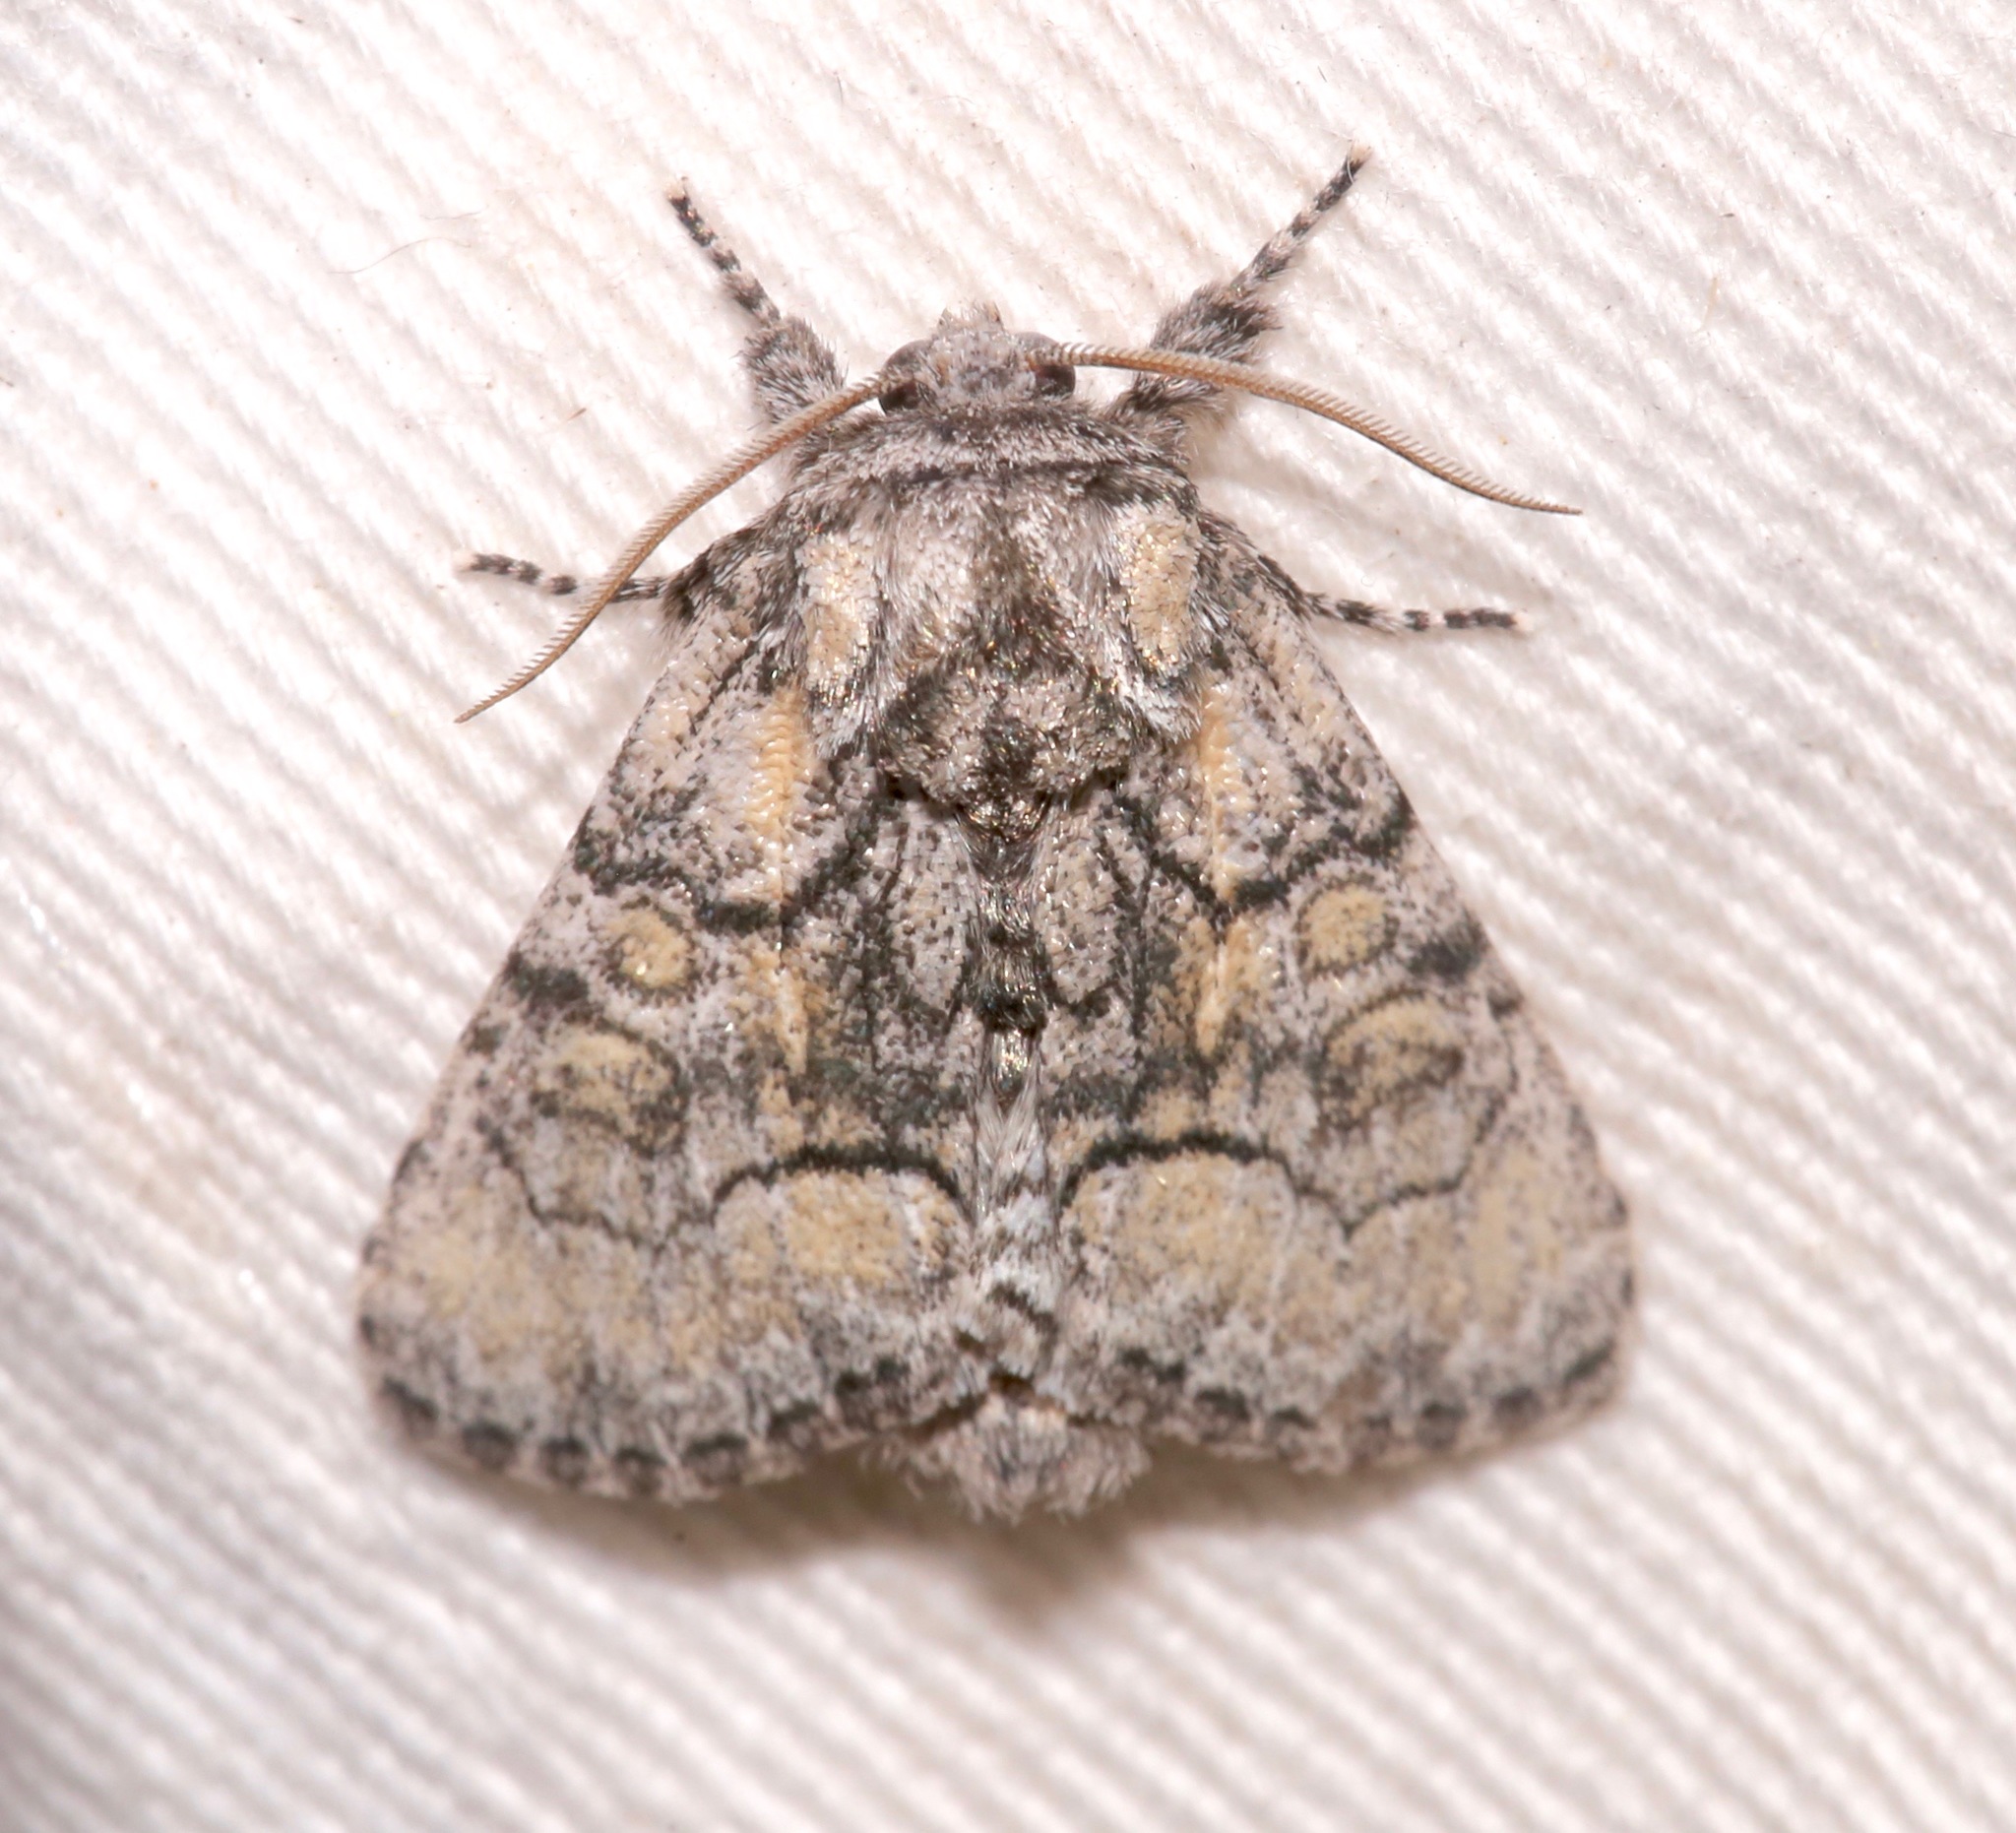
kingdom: Animalia
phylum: Arthropoda
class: Insecta
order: Lepidoptera
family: Noctuidae
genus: Raphia
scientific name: Raphia frater
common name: Brother
